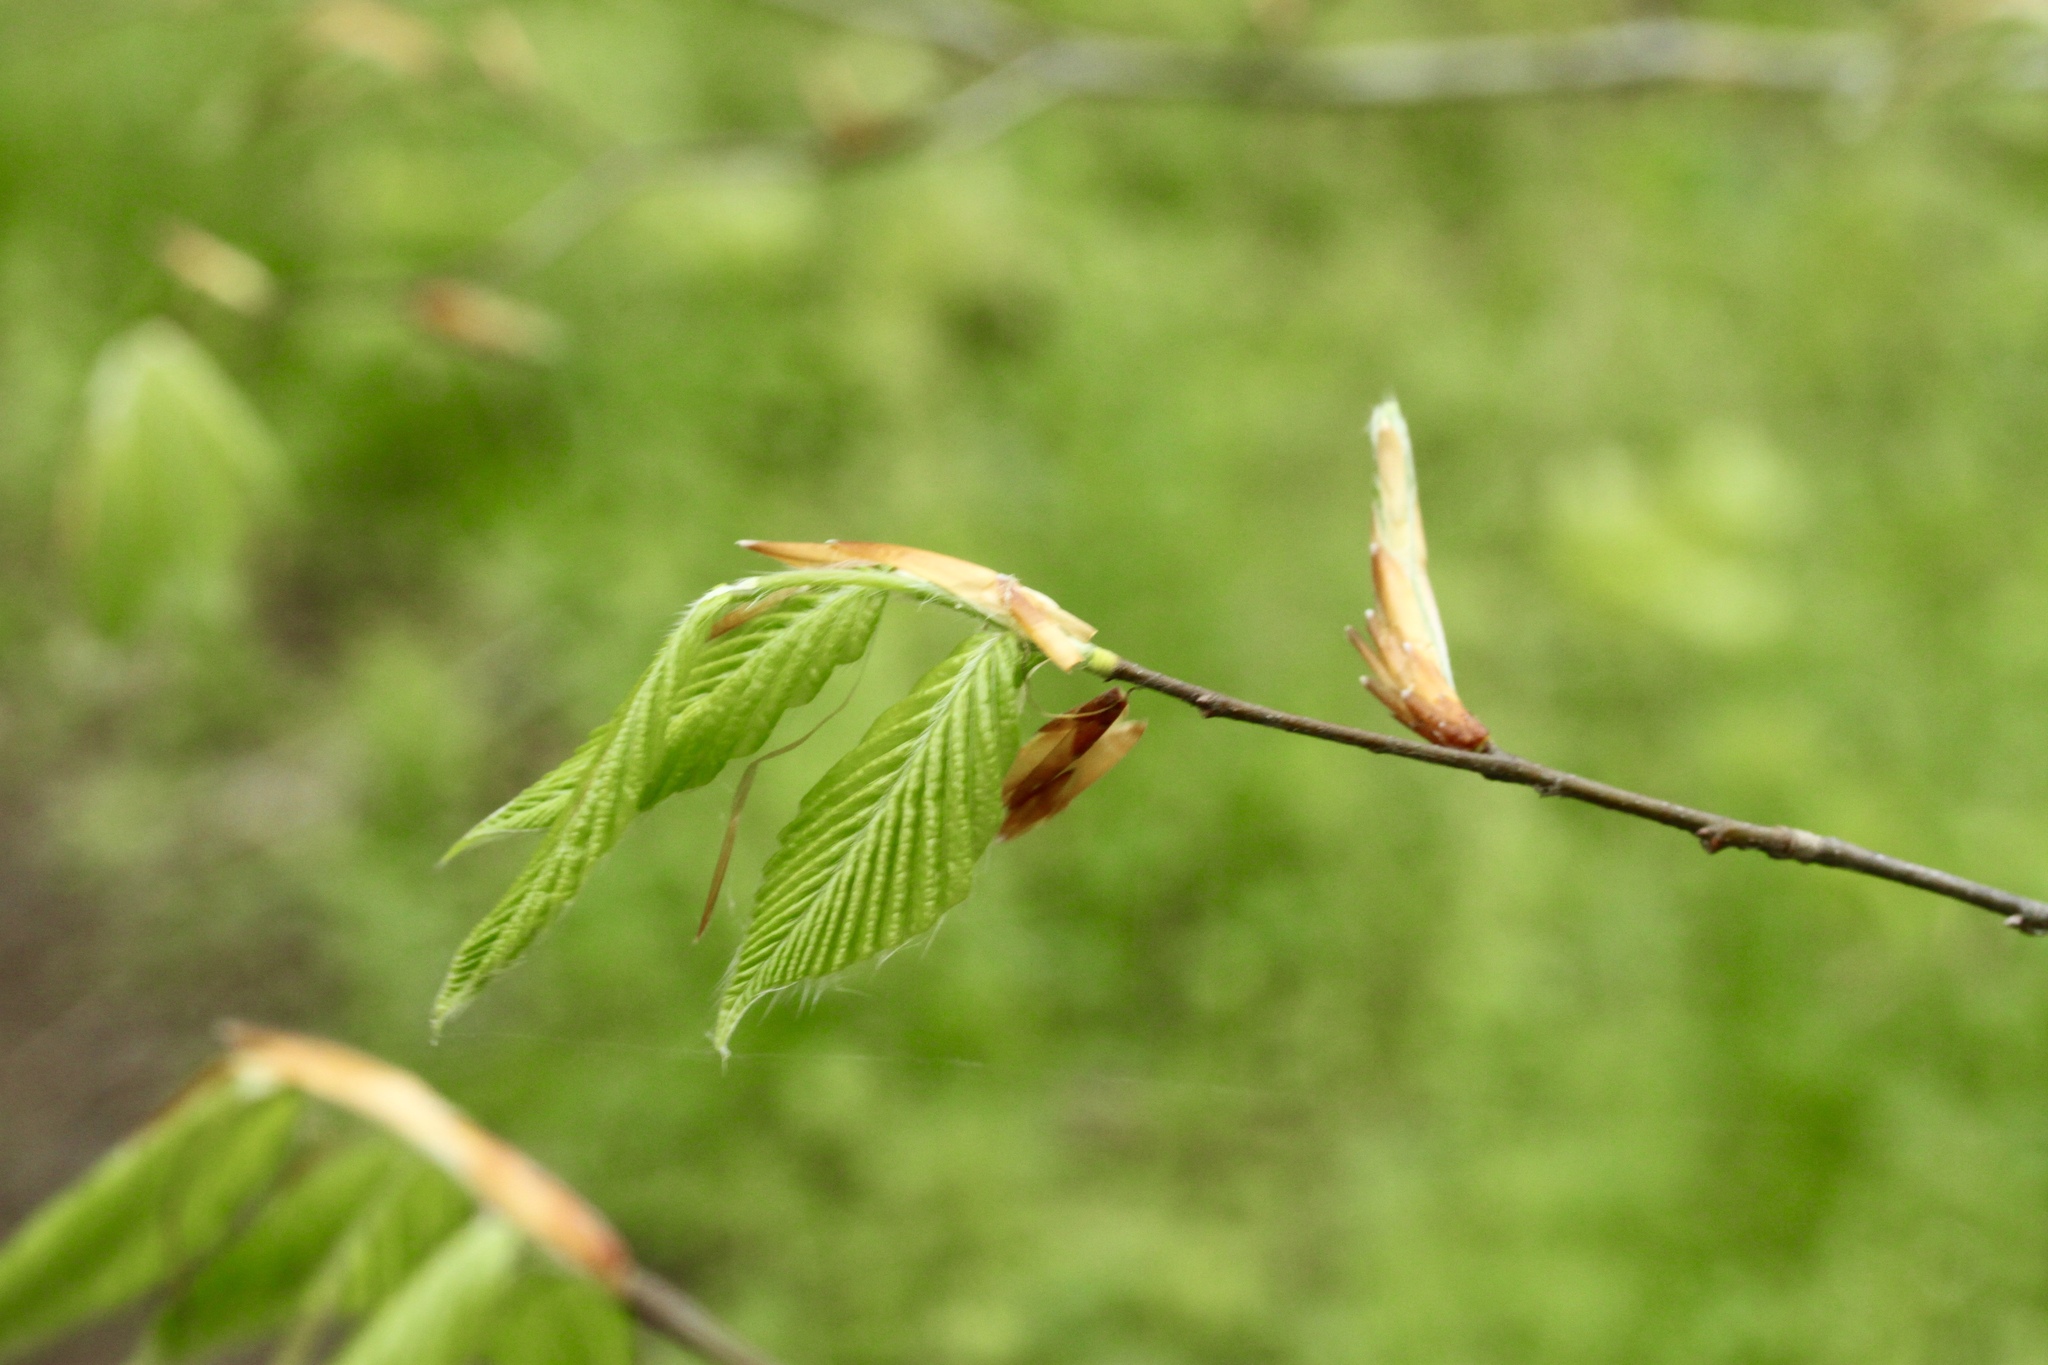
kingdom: Plantae
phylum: Tracheophyta
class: Magnoliopsida
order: Fagales
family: Fagaceae
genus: Fagus
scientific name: Fagus grandifolia
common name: American beech
